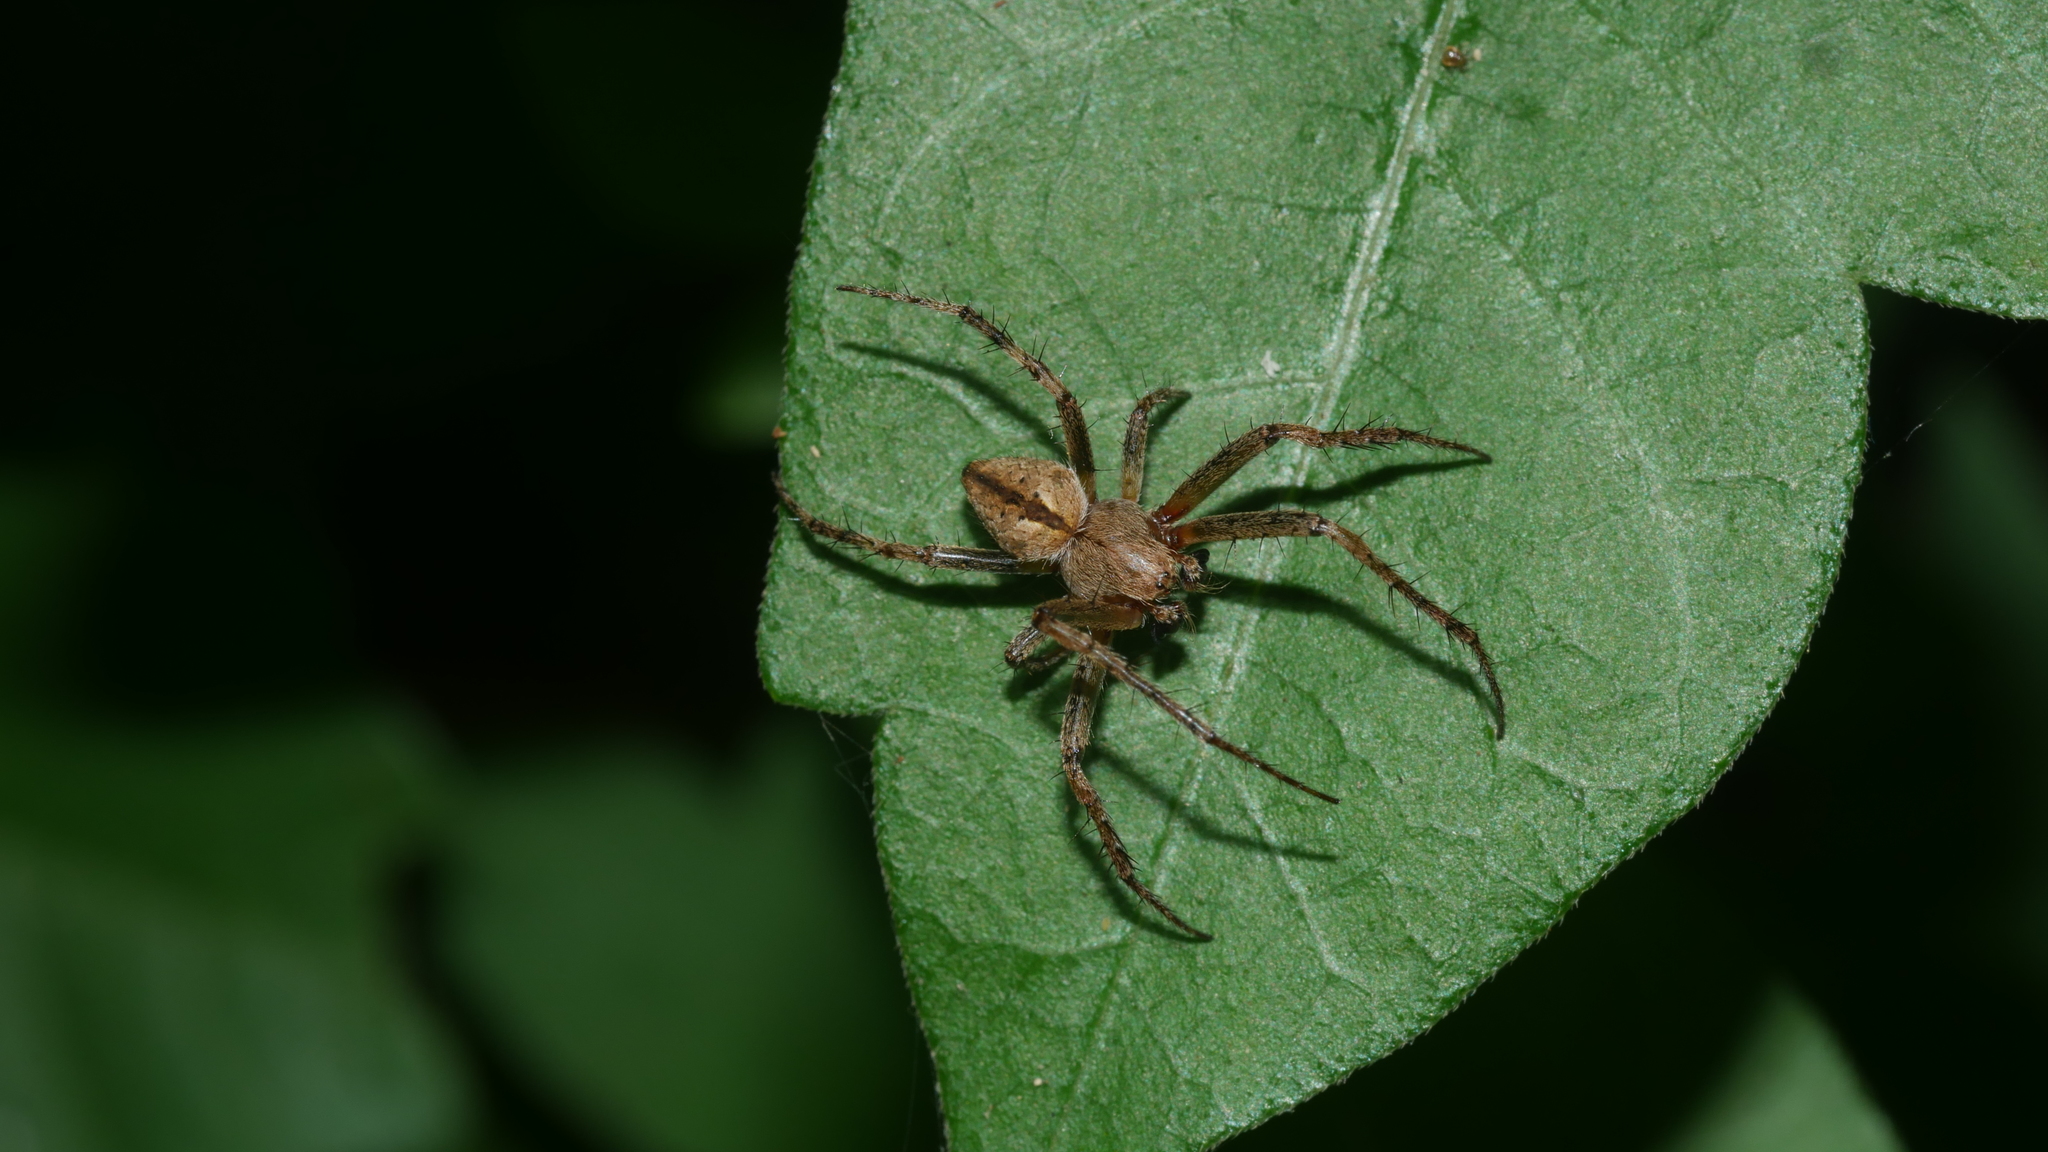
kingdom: Animalia
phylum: Arthropoda
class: Arachnida
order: Araneae
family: Araneidae
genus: Eustala
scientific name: Eustala
